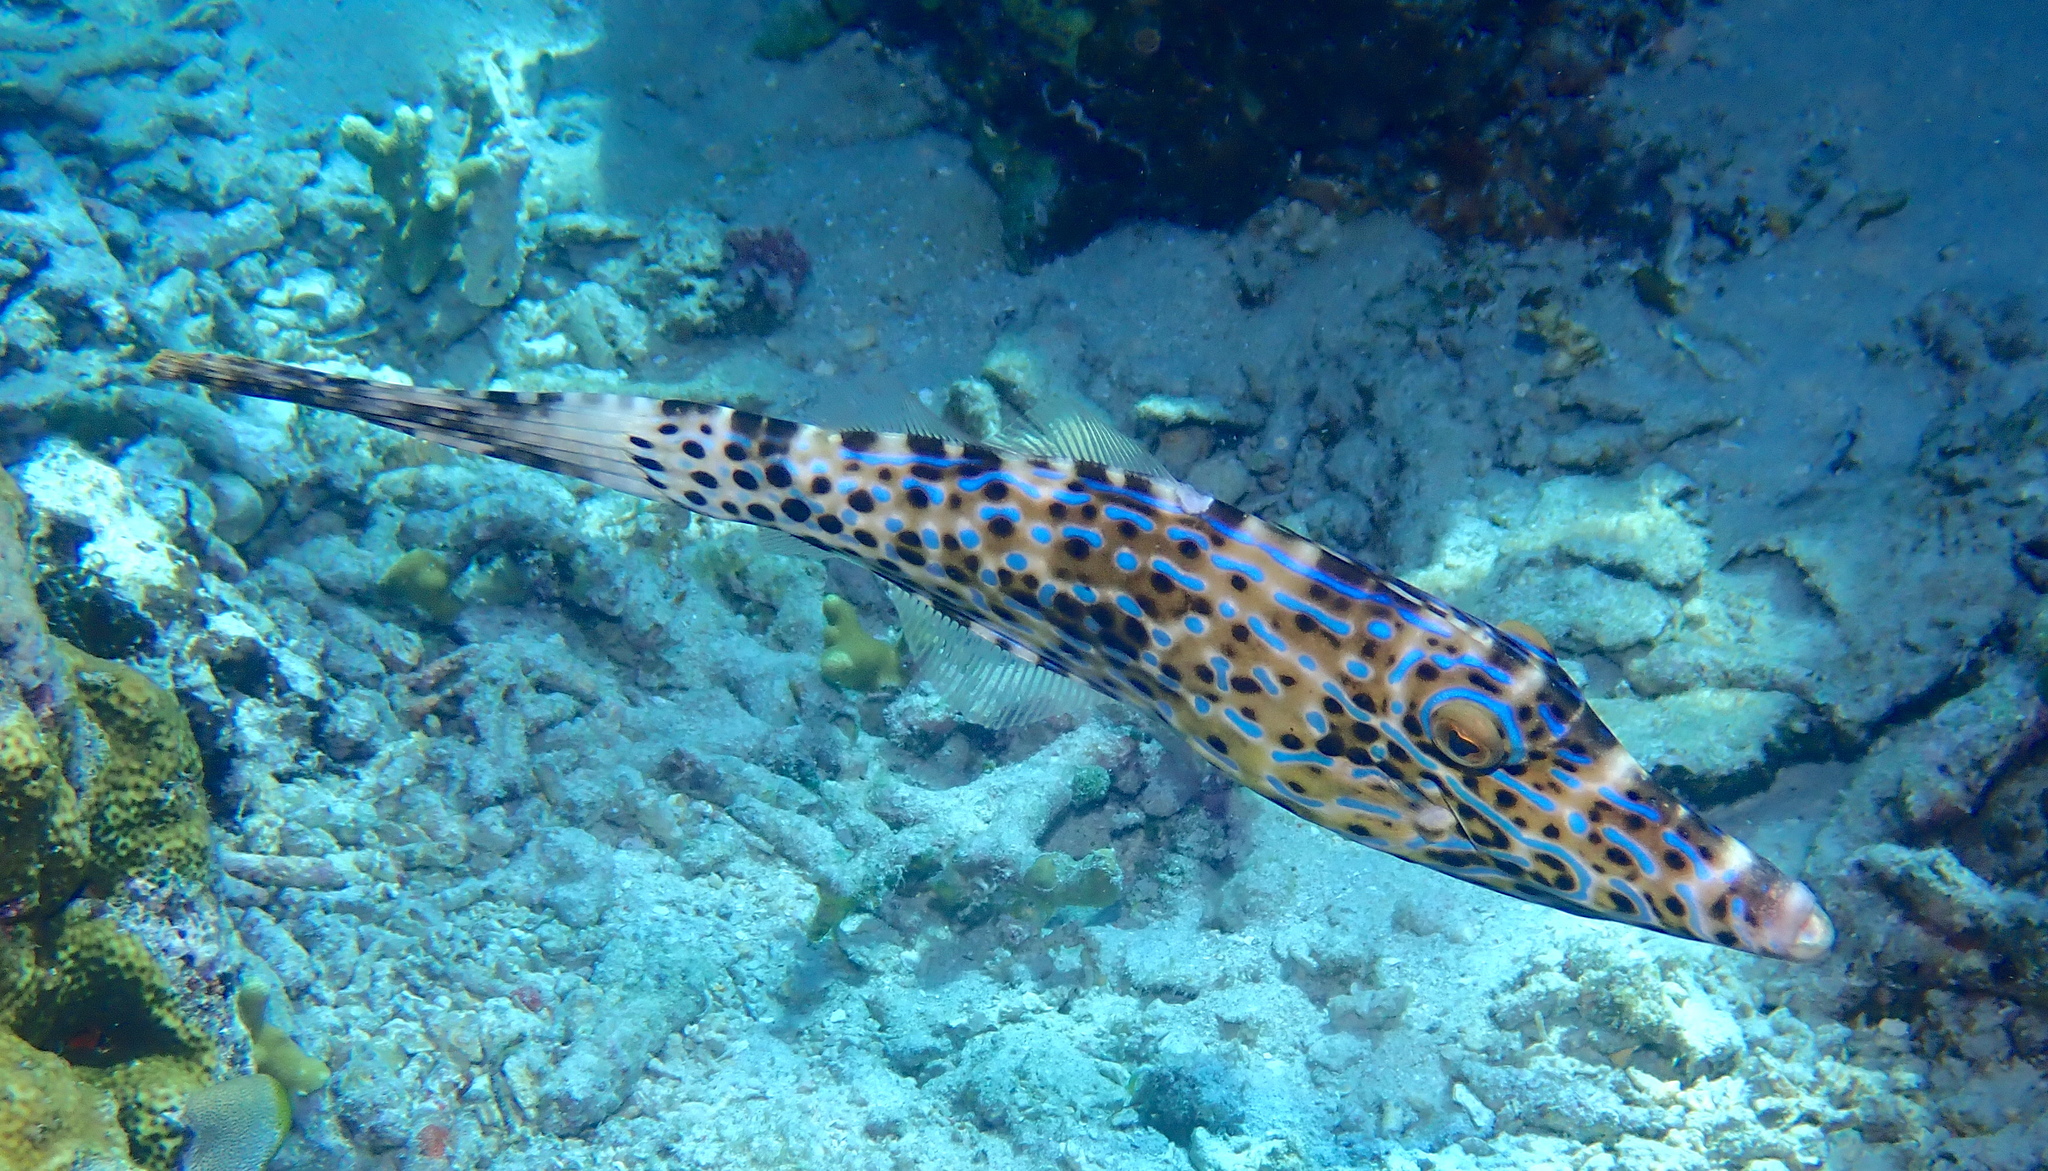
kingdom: Animalia
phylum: Chordata
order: Tetraodontiformes
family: Monacanthidae
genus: Aluterus
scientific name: Aluterus scriptus
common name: Scribbled leatherjacket filefish
